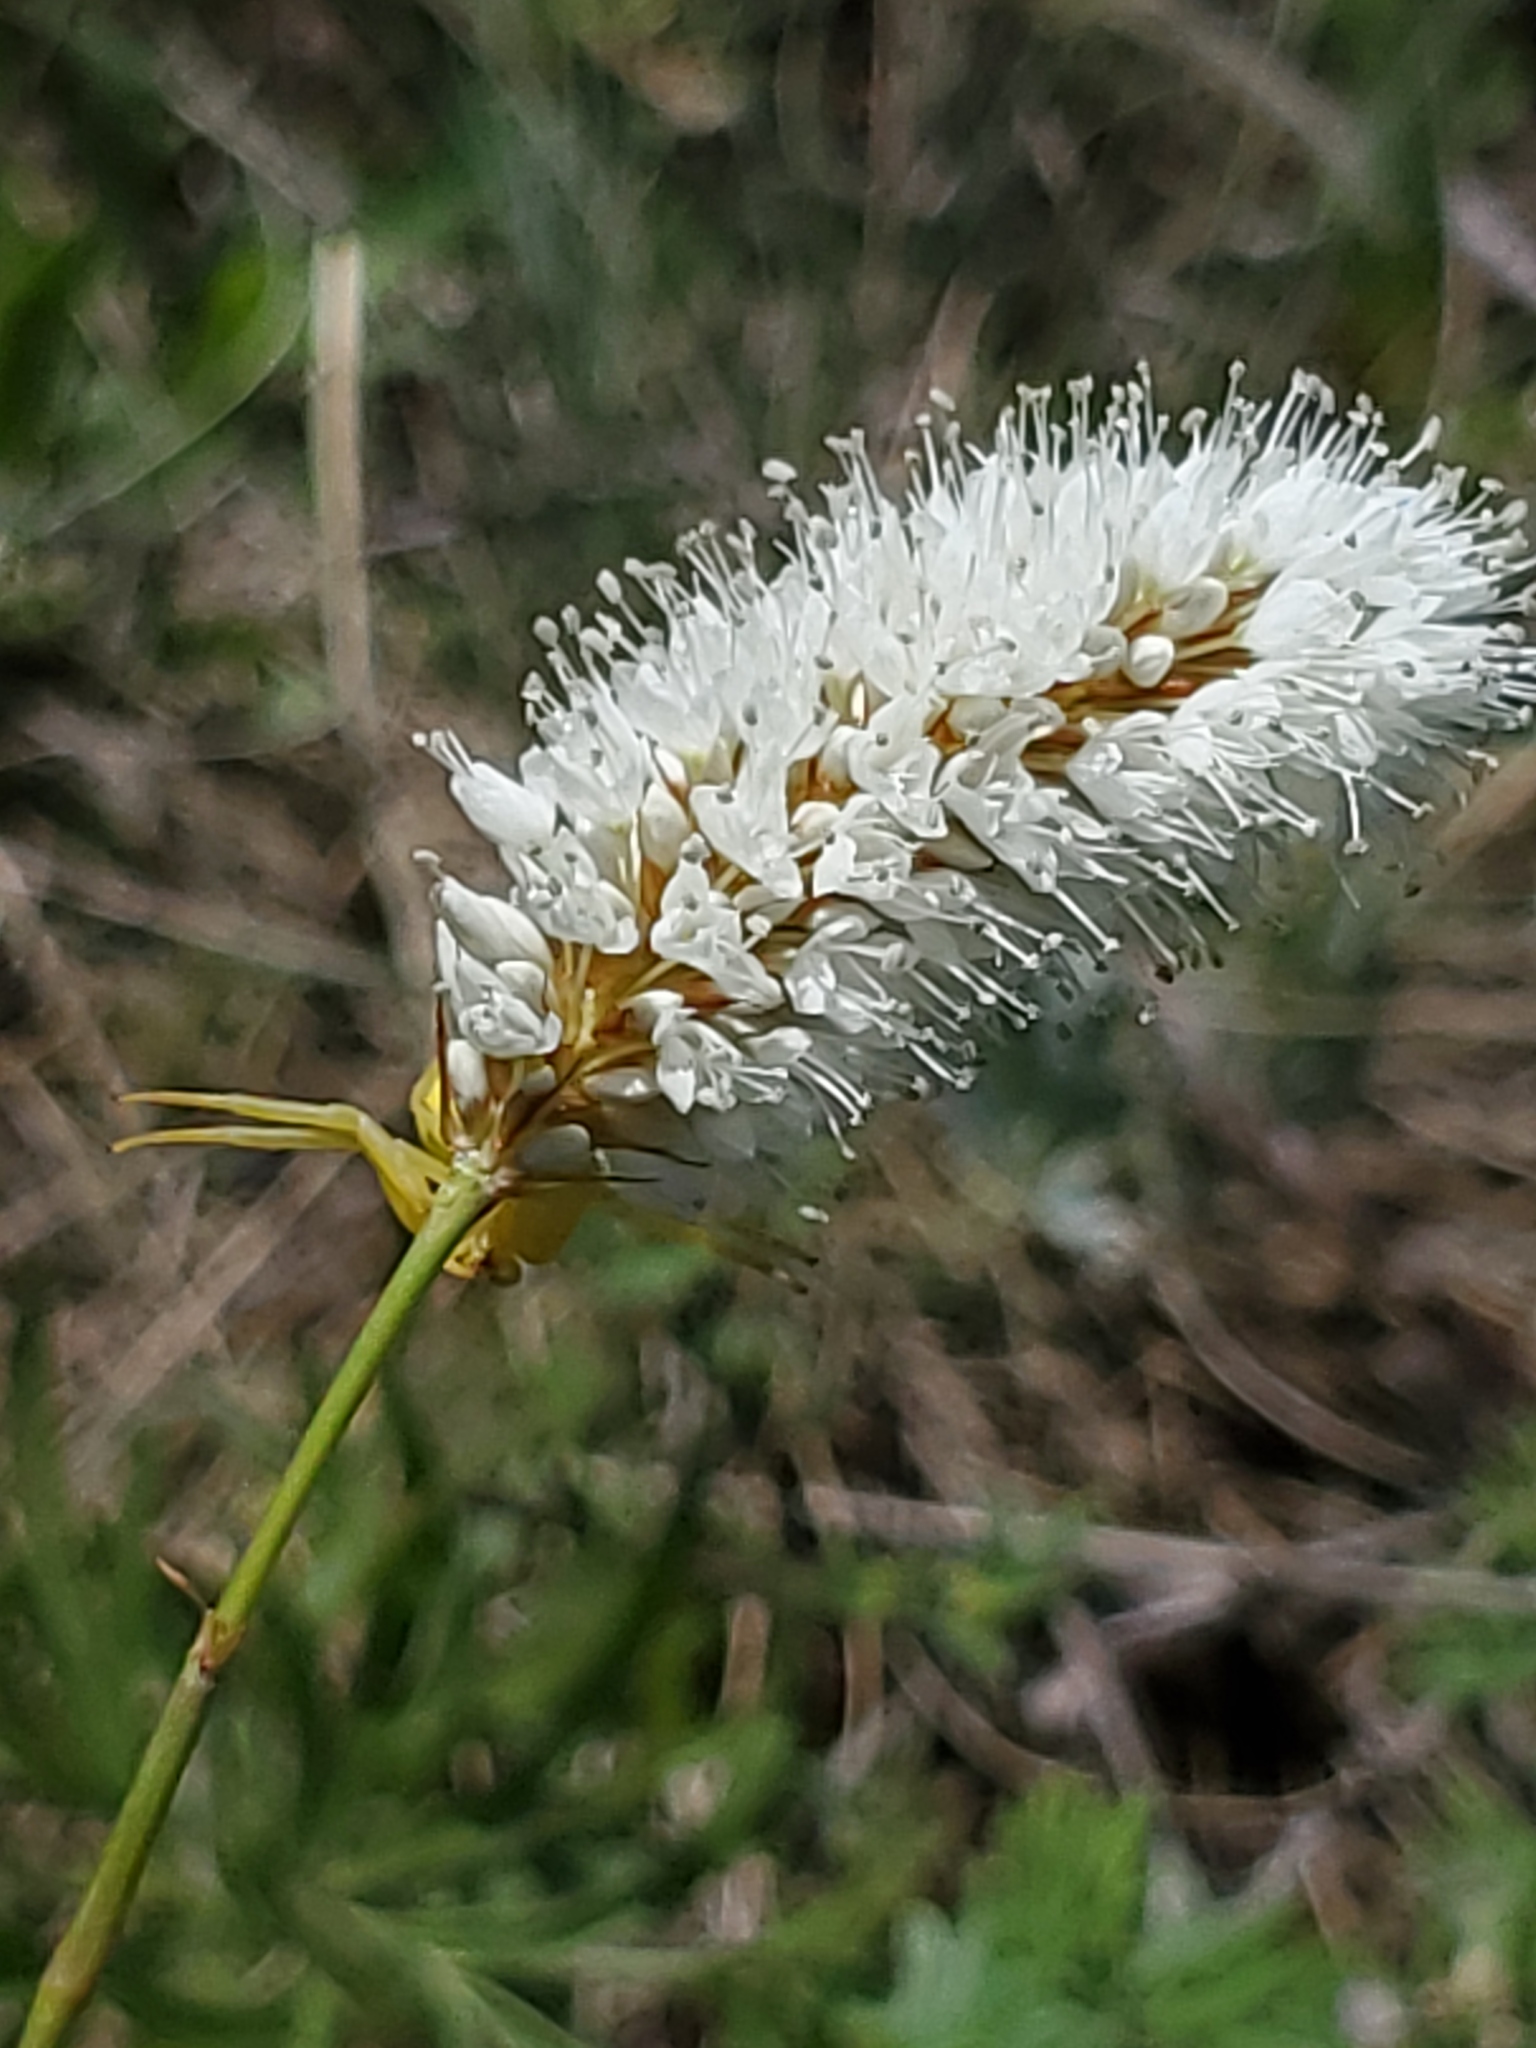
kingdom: Plantae
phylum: Tracheophyta
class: Magnoliopsida
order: Caryophyllales
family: Polygonaceae
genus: Bistorta
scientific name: Bistorta bistortoides
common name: American bistort
